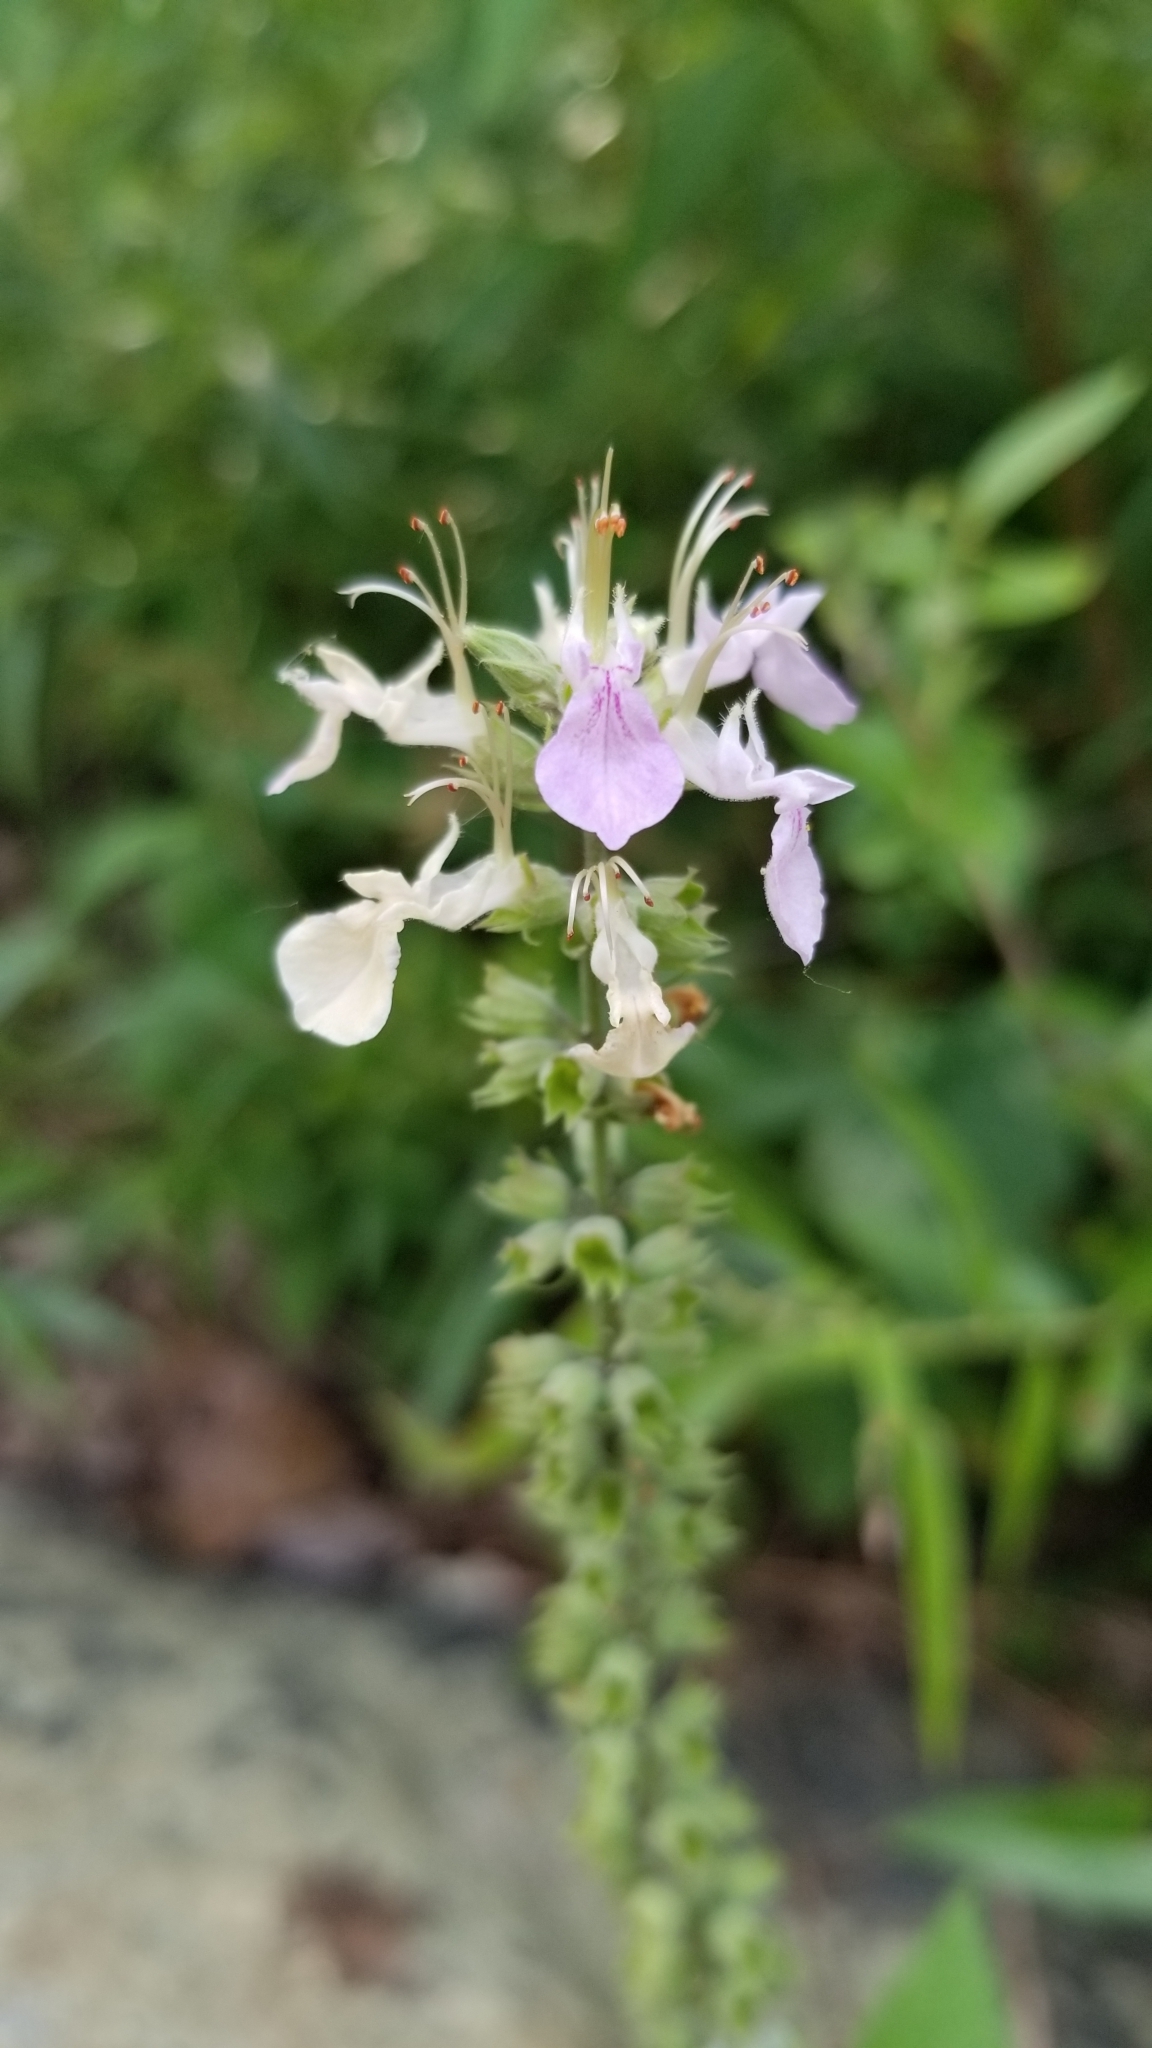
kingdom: Plantae
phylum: Tracheophyta
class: Magnoliopsida
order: Lamiales
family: Lamiaceae
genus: Teucrium
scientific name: Teucrium canadense
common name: American germander
